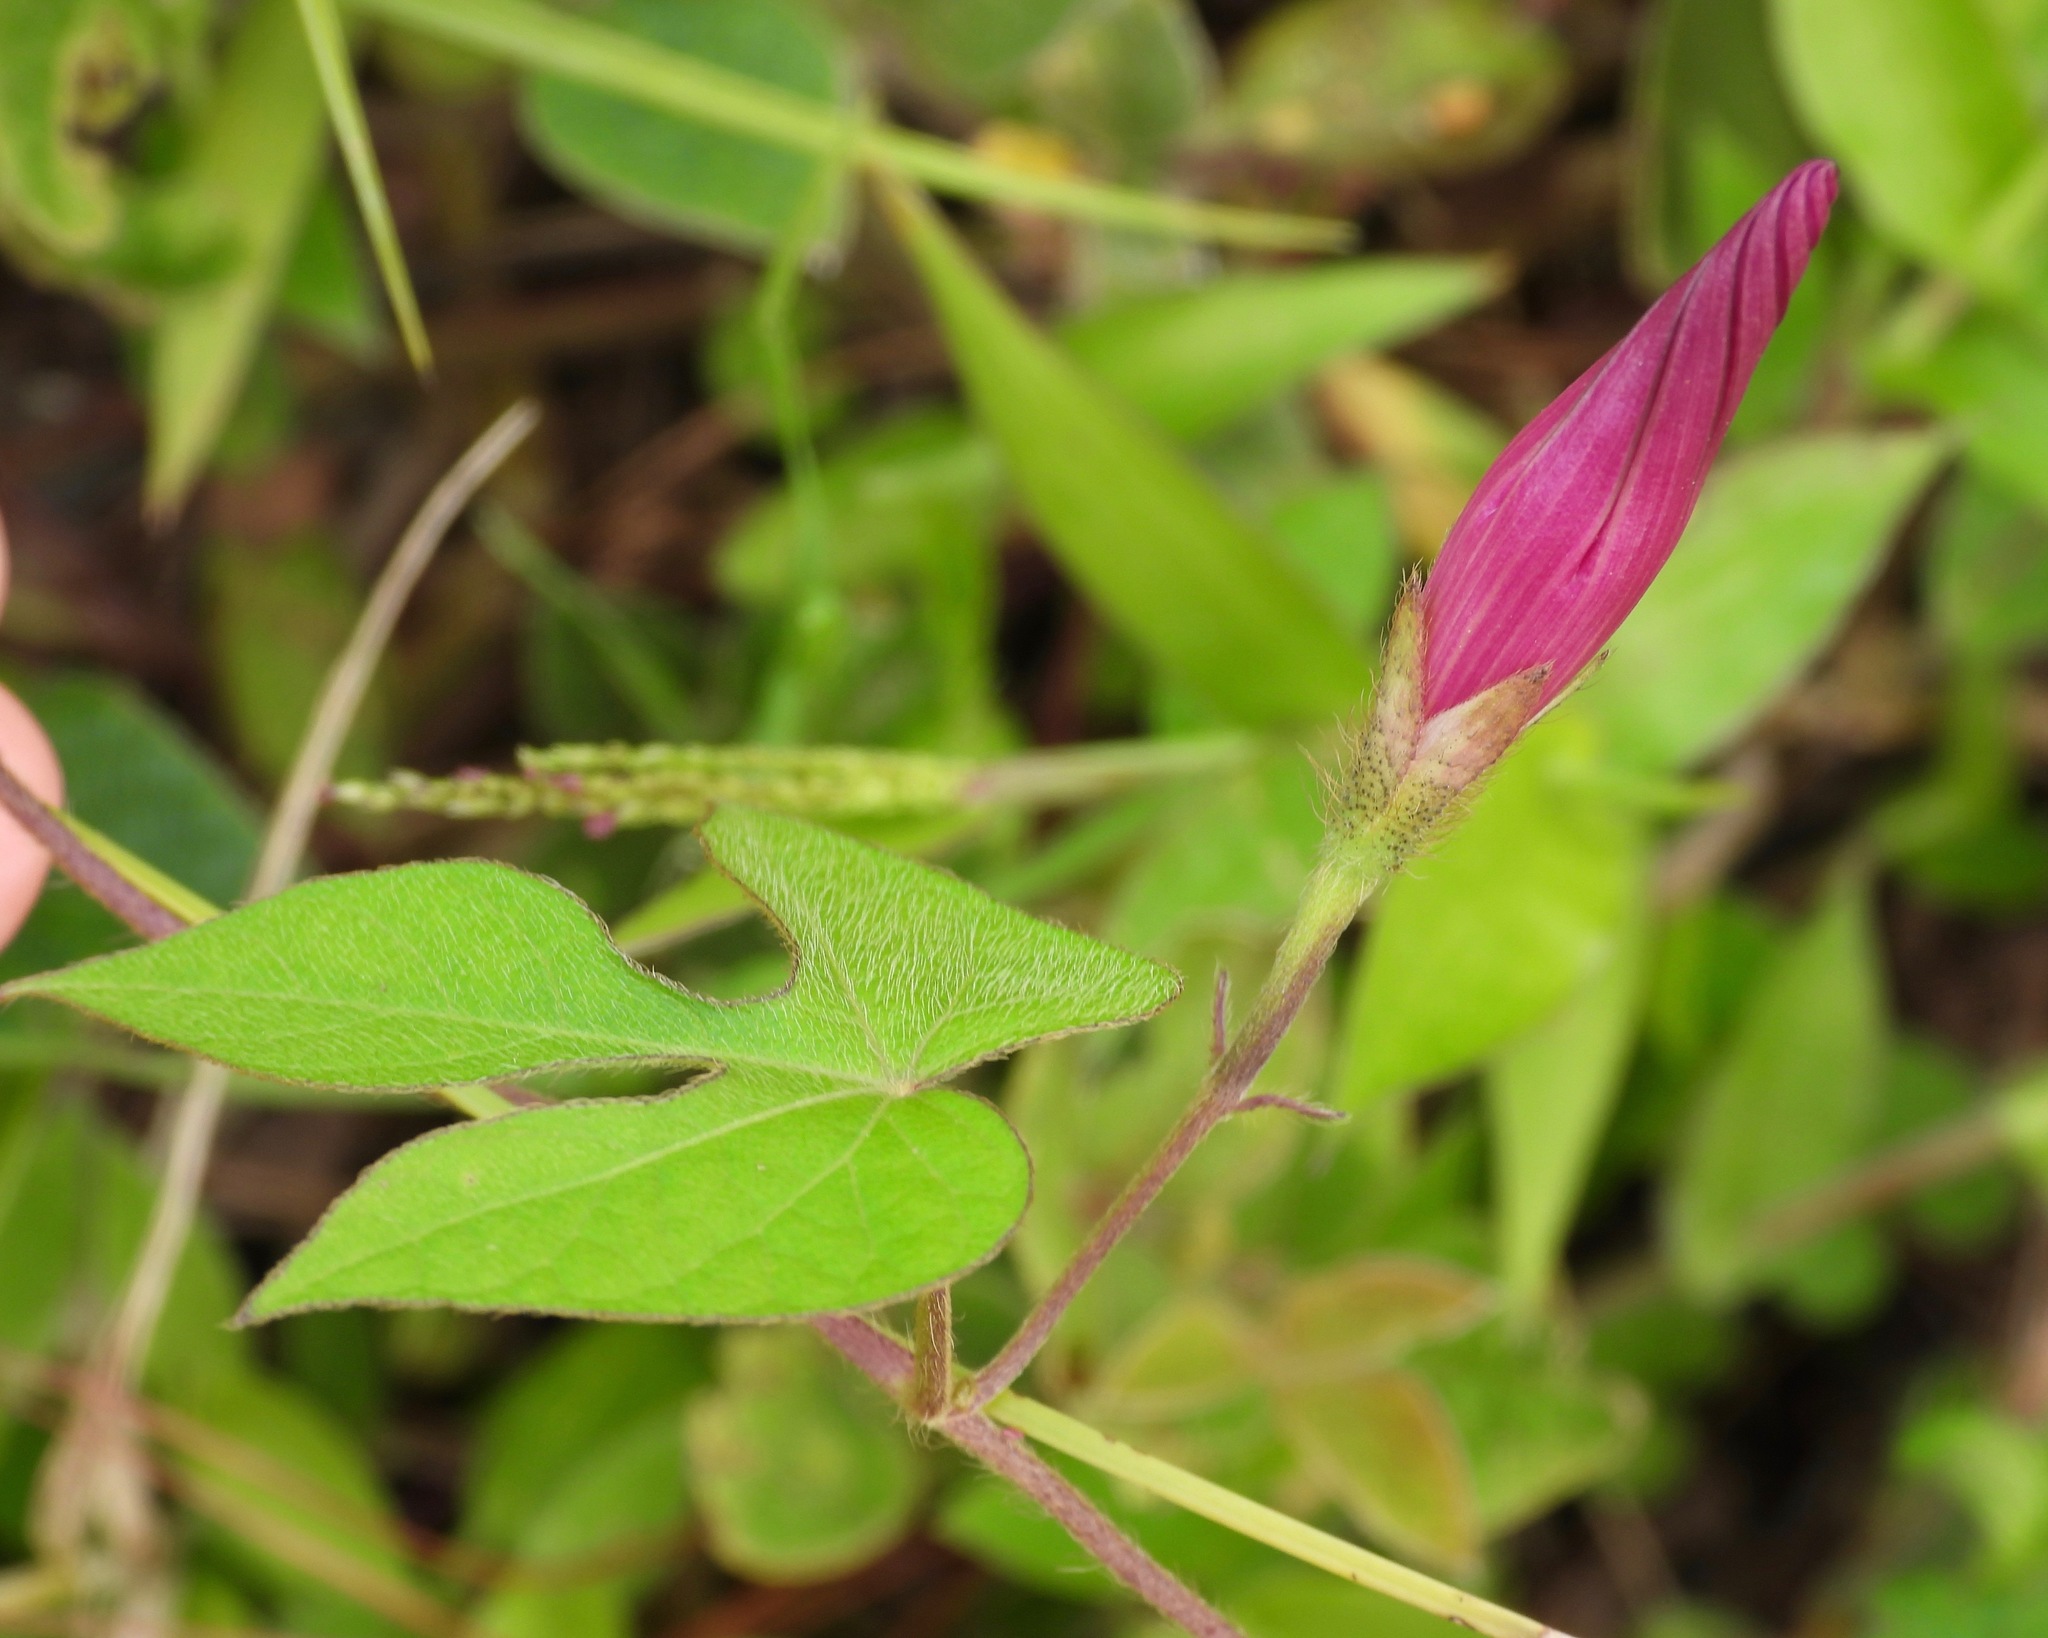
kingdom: Plantae
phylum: Tracheophyta
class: Magnoliopsida
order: Solanales
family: Convolvulaceae
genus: Ipomoea
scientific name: Ipomoea purpurea
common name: Common morning-glory
